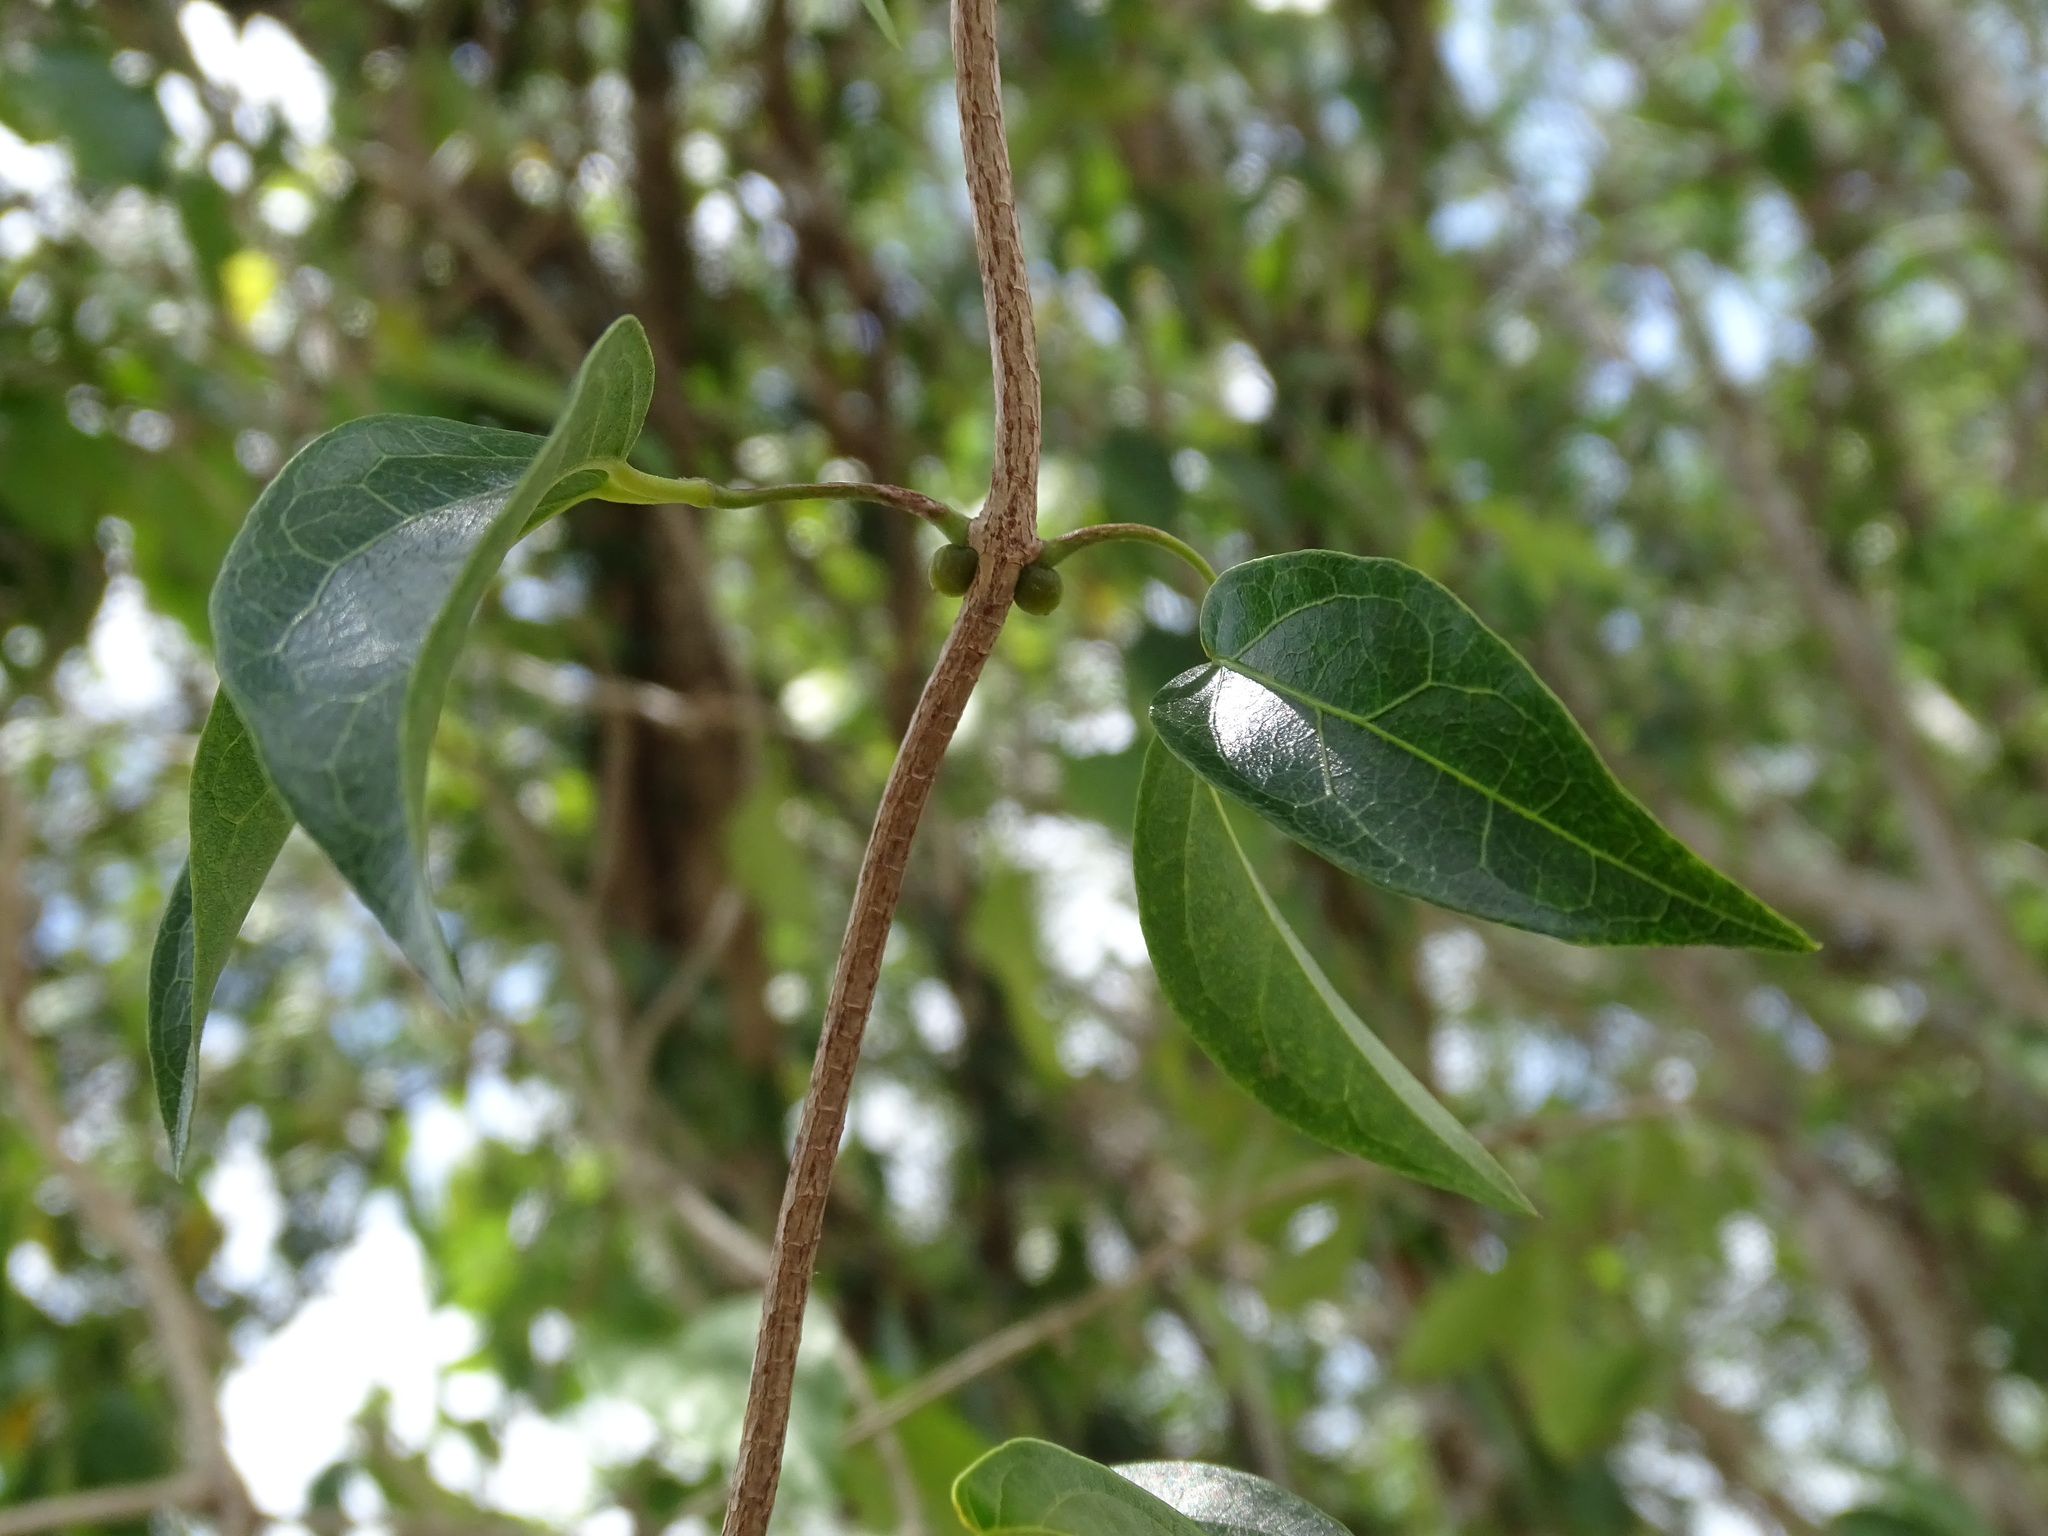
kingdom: Plantae
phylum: Tracheophyta
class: Magnoliopsida
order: Lamiales
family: Bignoniaceae
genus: Dolichandra
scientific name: Dolichandra unguis-cati
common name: Catclaw vine
